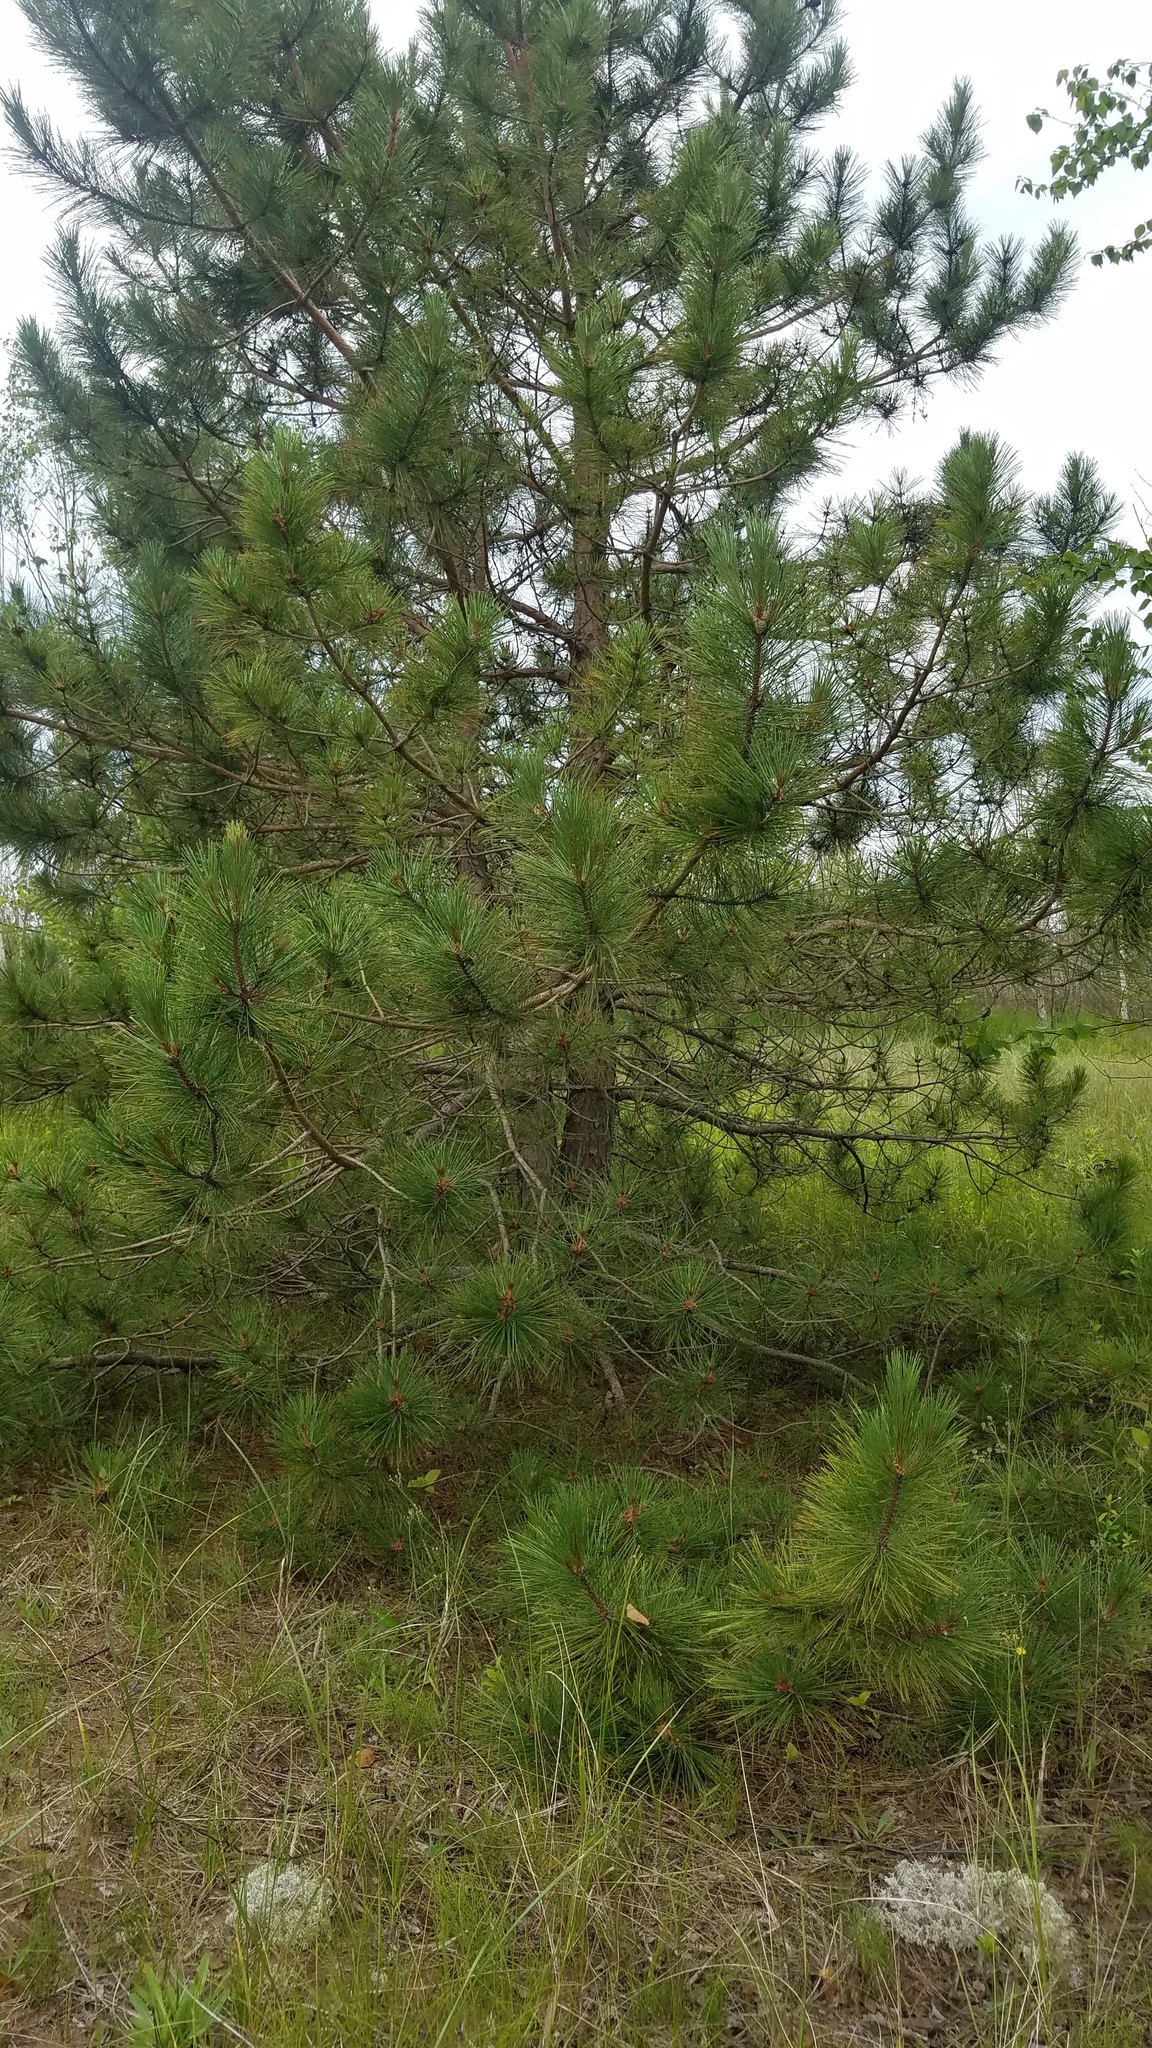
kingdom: Plantae
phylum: Tracheophyta
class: Pinopsida
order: Pinales
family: Pinaceae
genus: Pinus
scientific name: Pinus resinosa
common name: Norway pine
